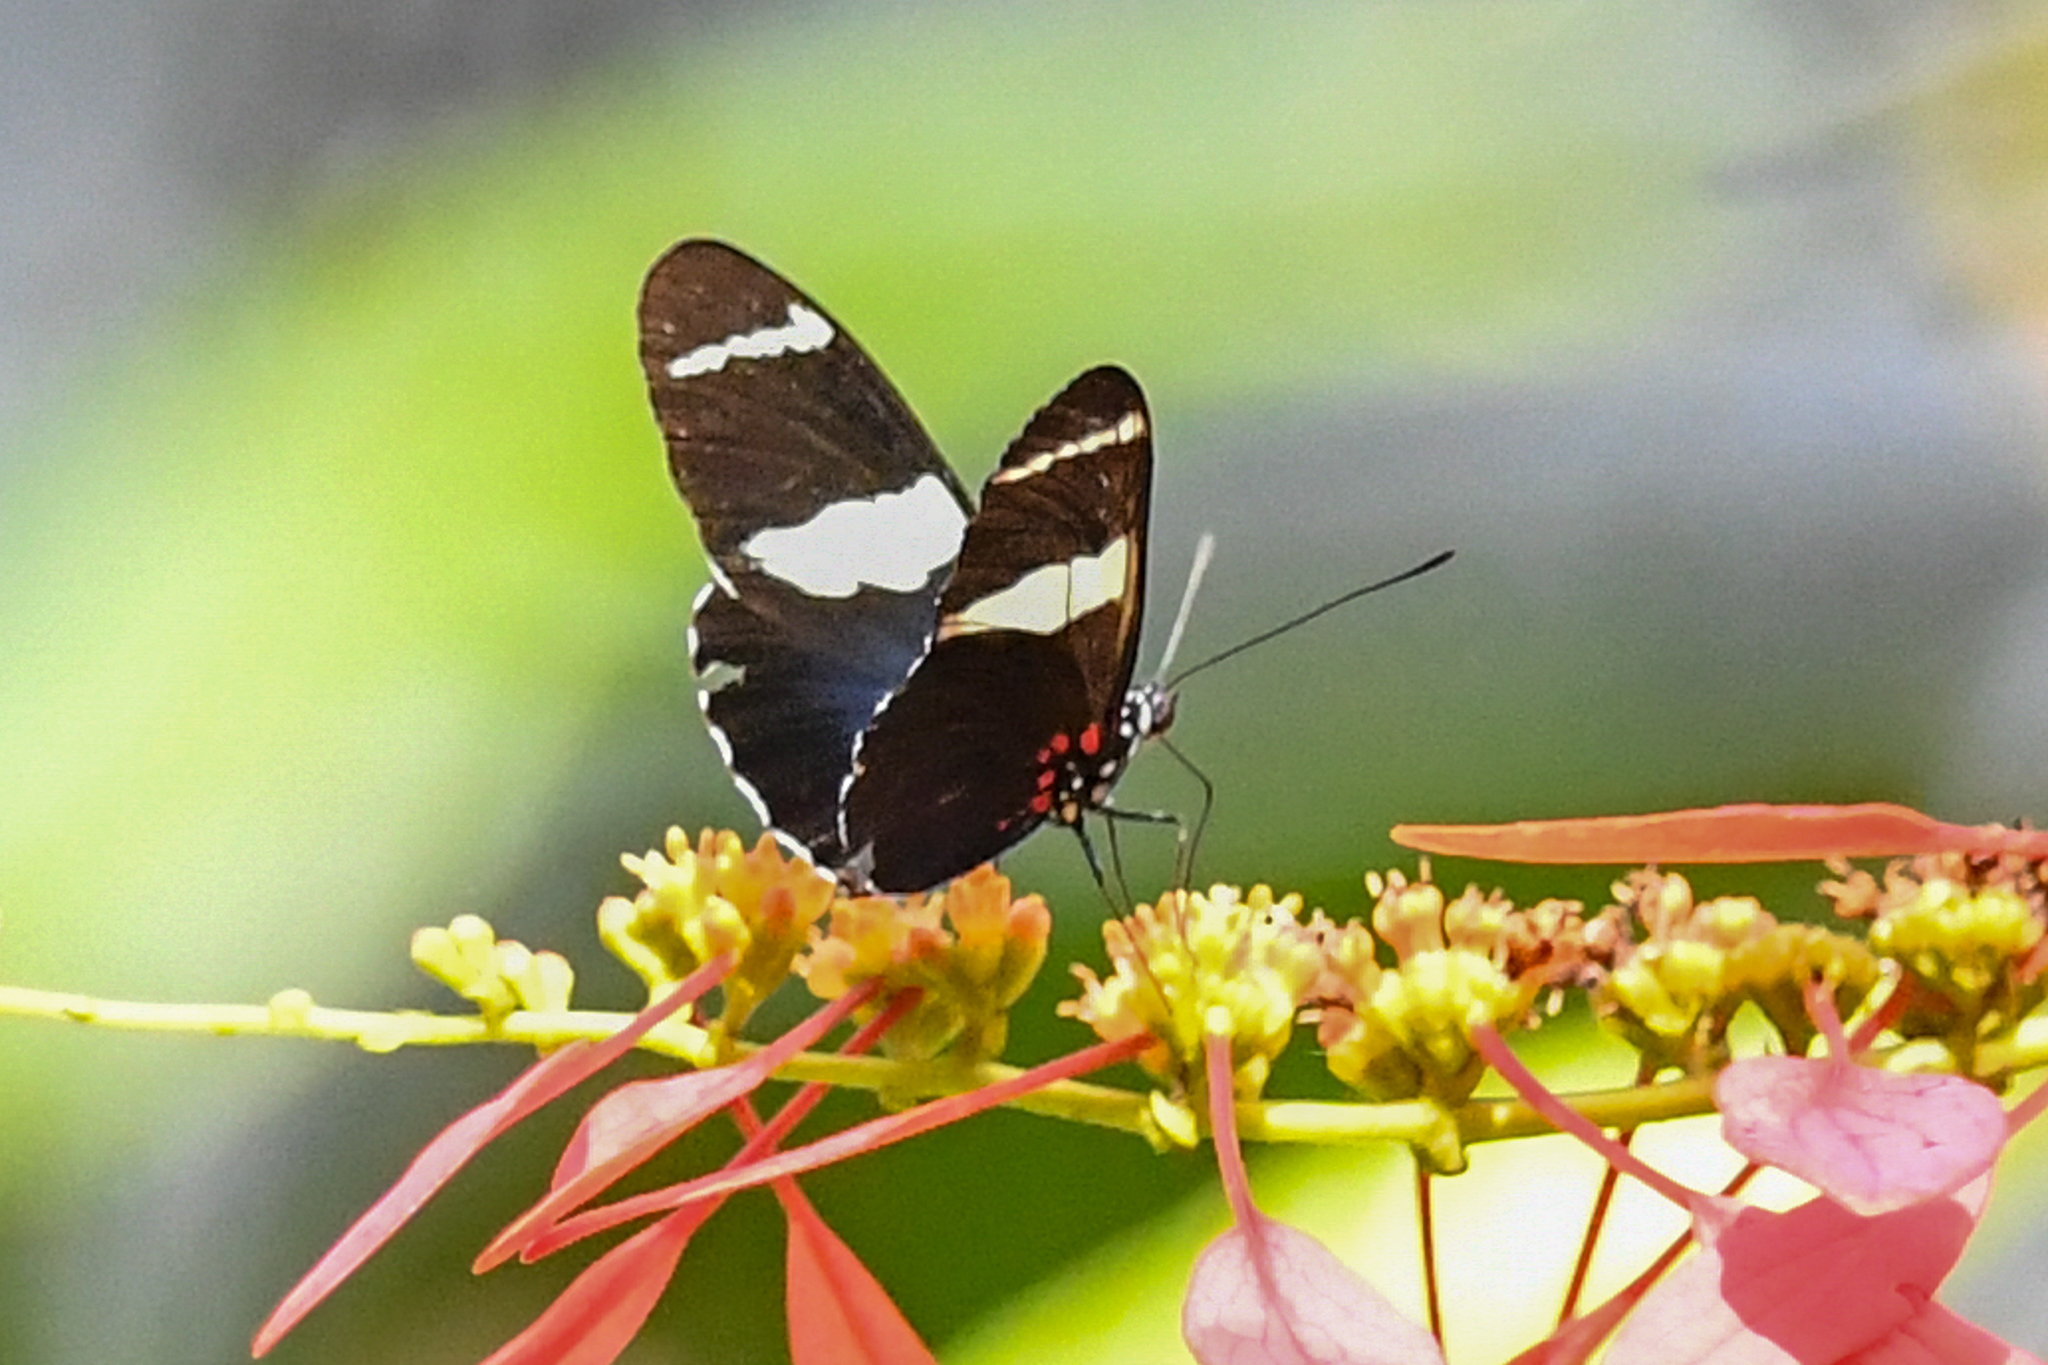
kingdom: Animalia
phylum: Arthropoda
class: Insecta
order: Lepidoptera
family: Nymphalidae
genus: Heliconius
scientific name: Heliconius sara
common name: Sara longwing
